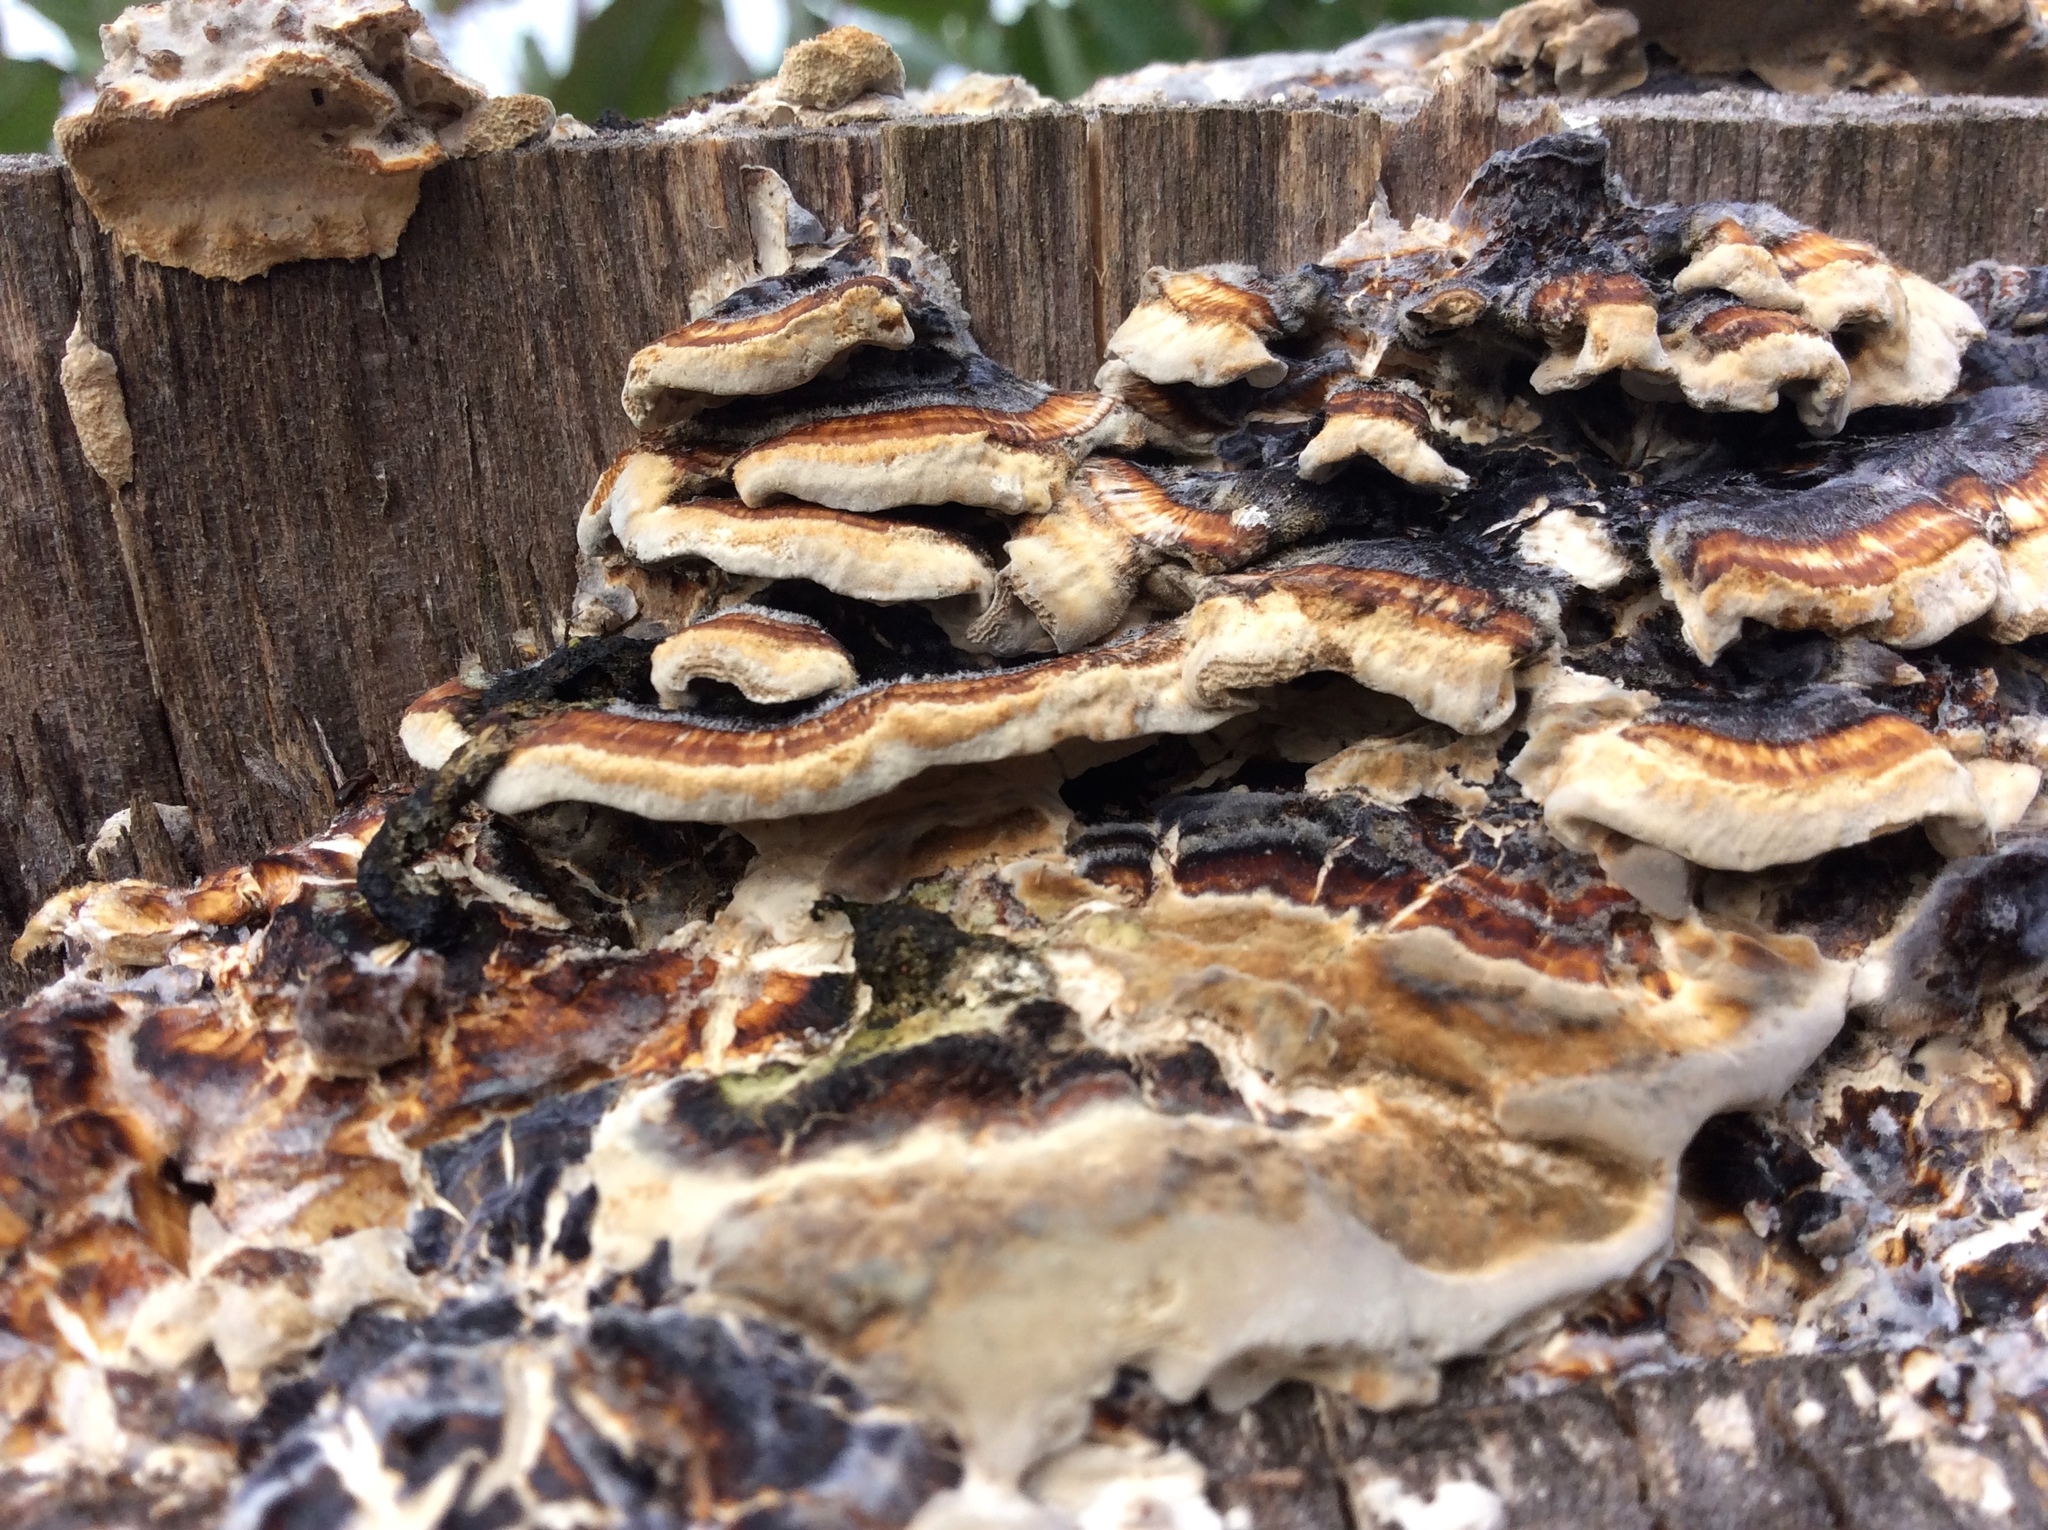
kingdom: Fungi
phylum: Basidiomycota
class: Agaricomycetes
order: Polyporales
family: Polyporaceae
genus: Trametes
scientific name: Trametes versicolor
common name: Turkeytail
